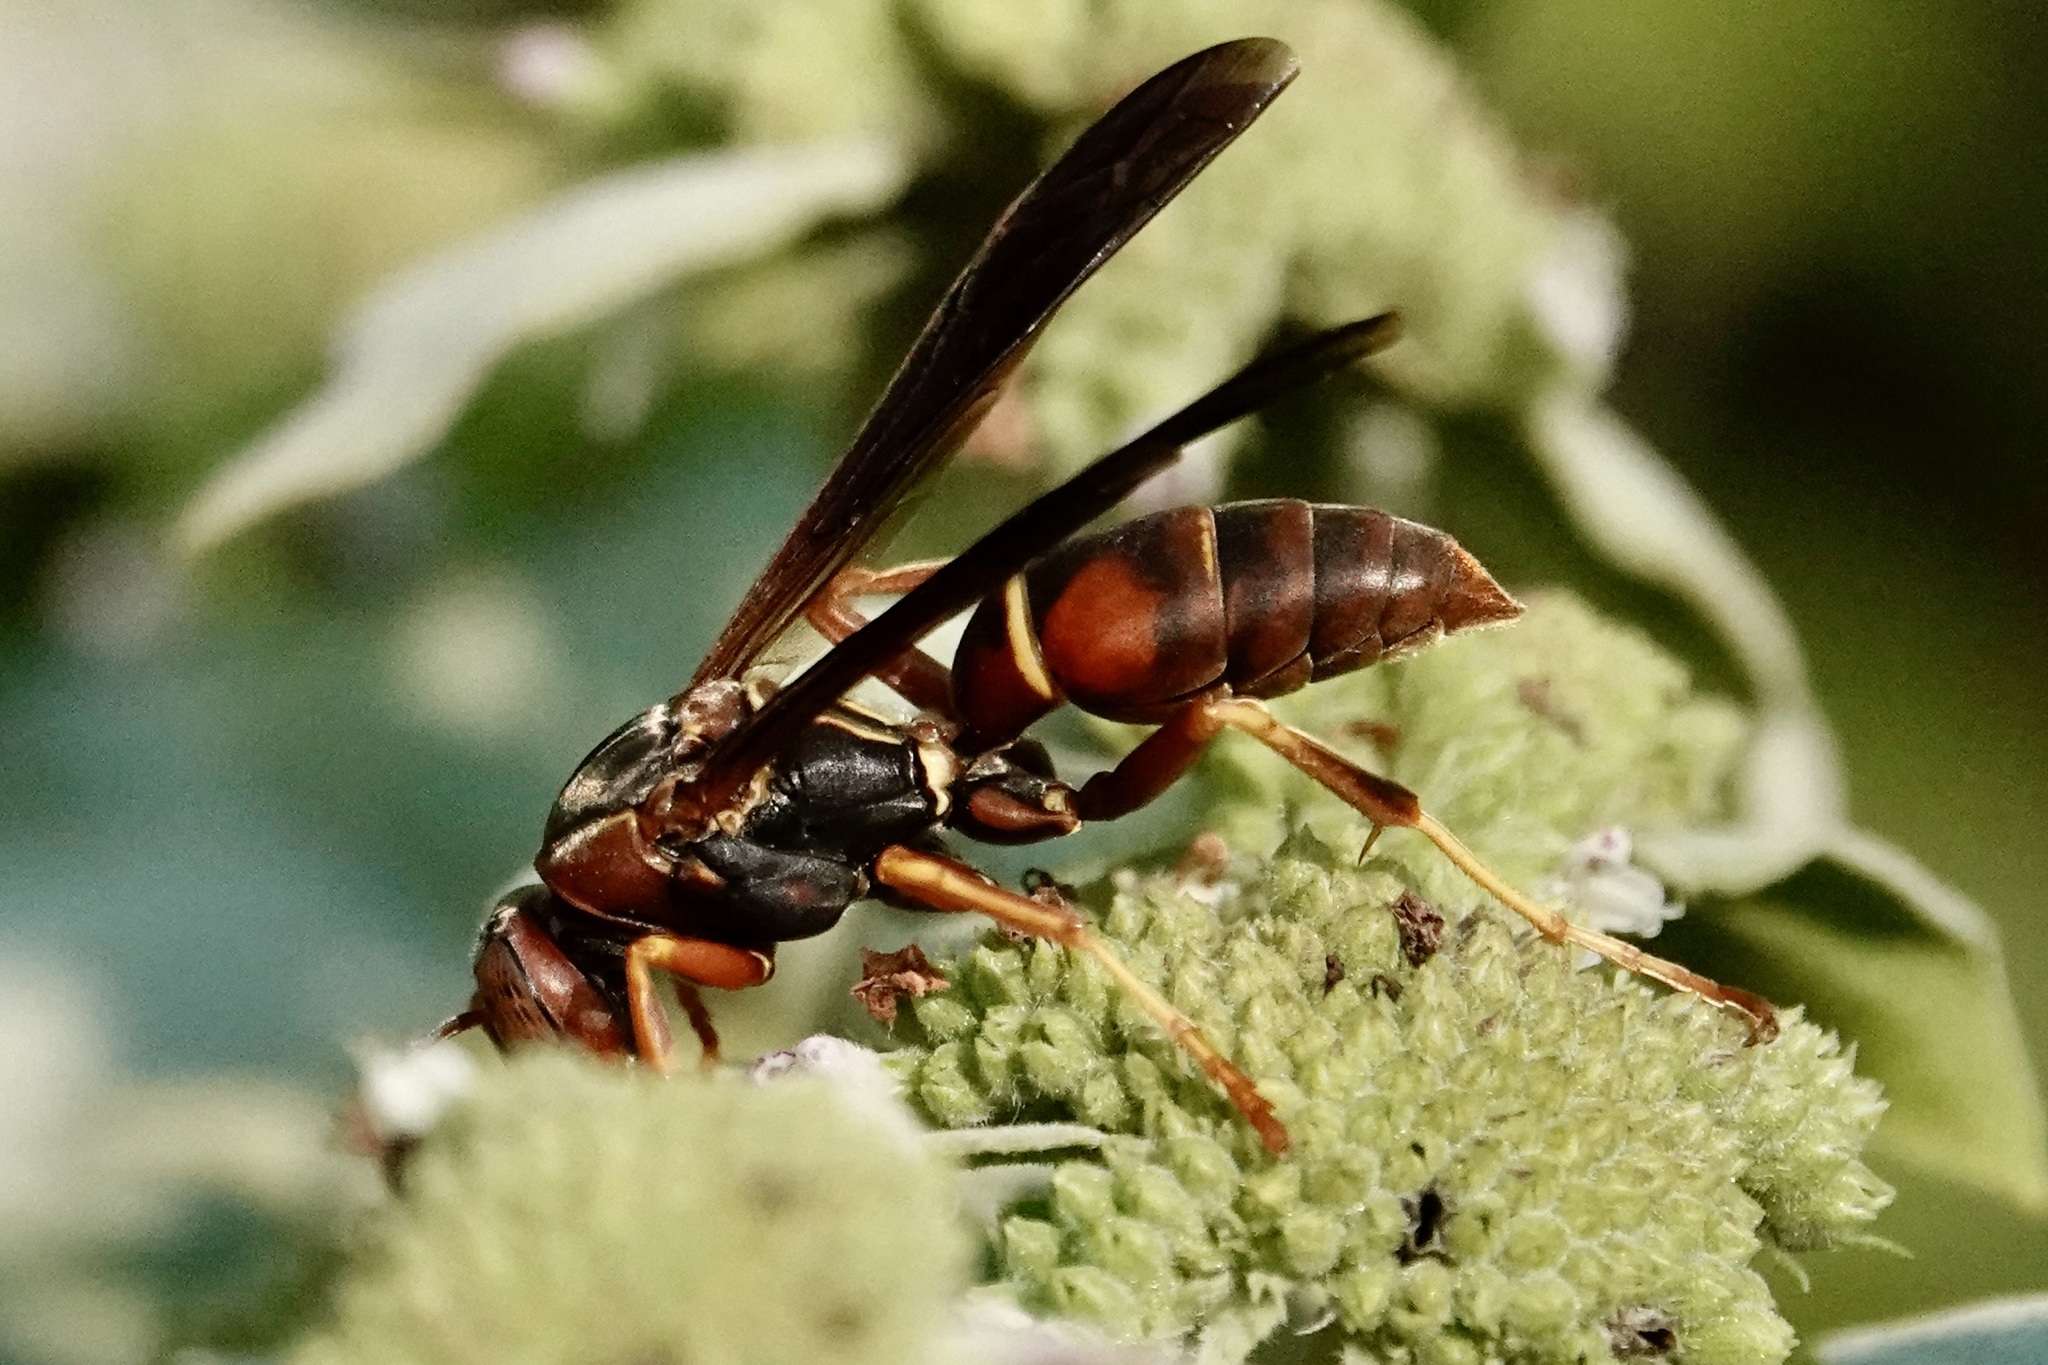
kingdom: Animalia
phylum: Arthropoda
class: Insecta
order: Hymenoptera
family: Eumenidae
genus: Polistes
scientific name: Polistes fuscatus
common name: Dark paper wasp
